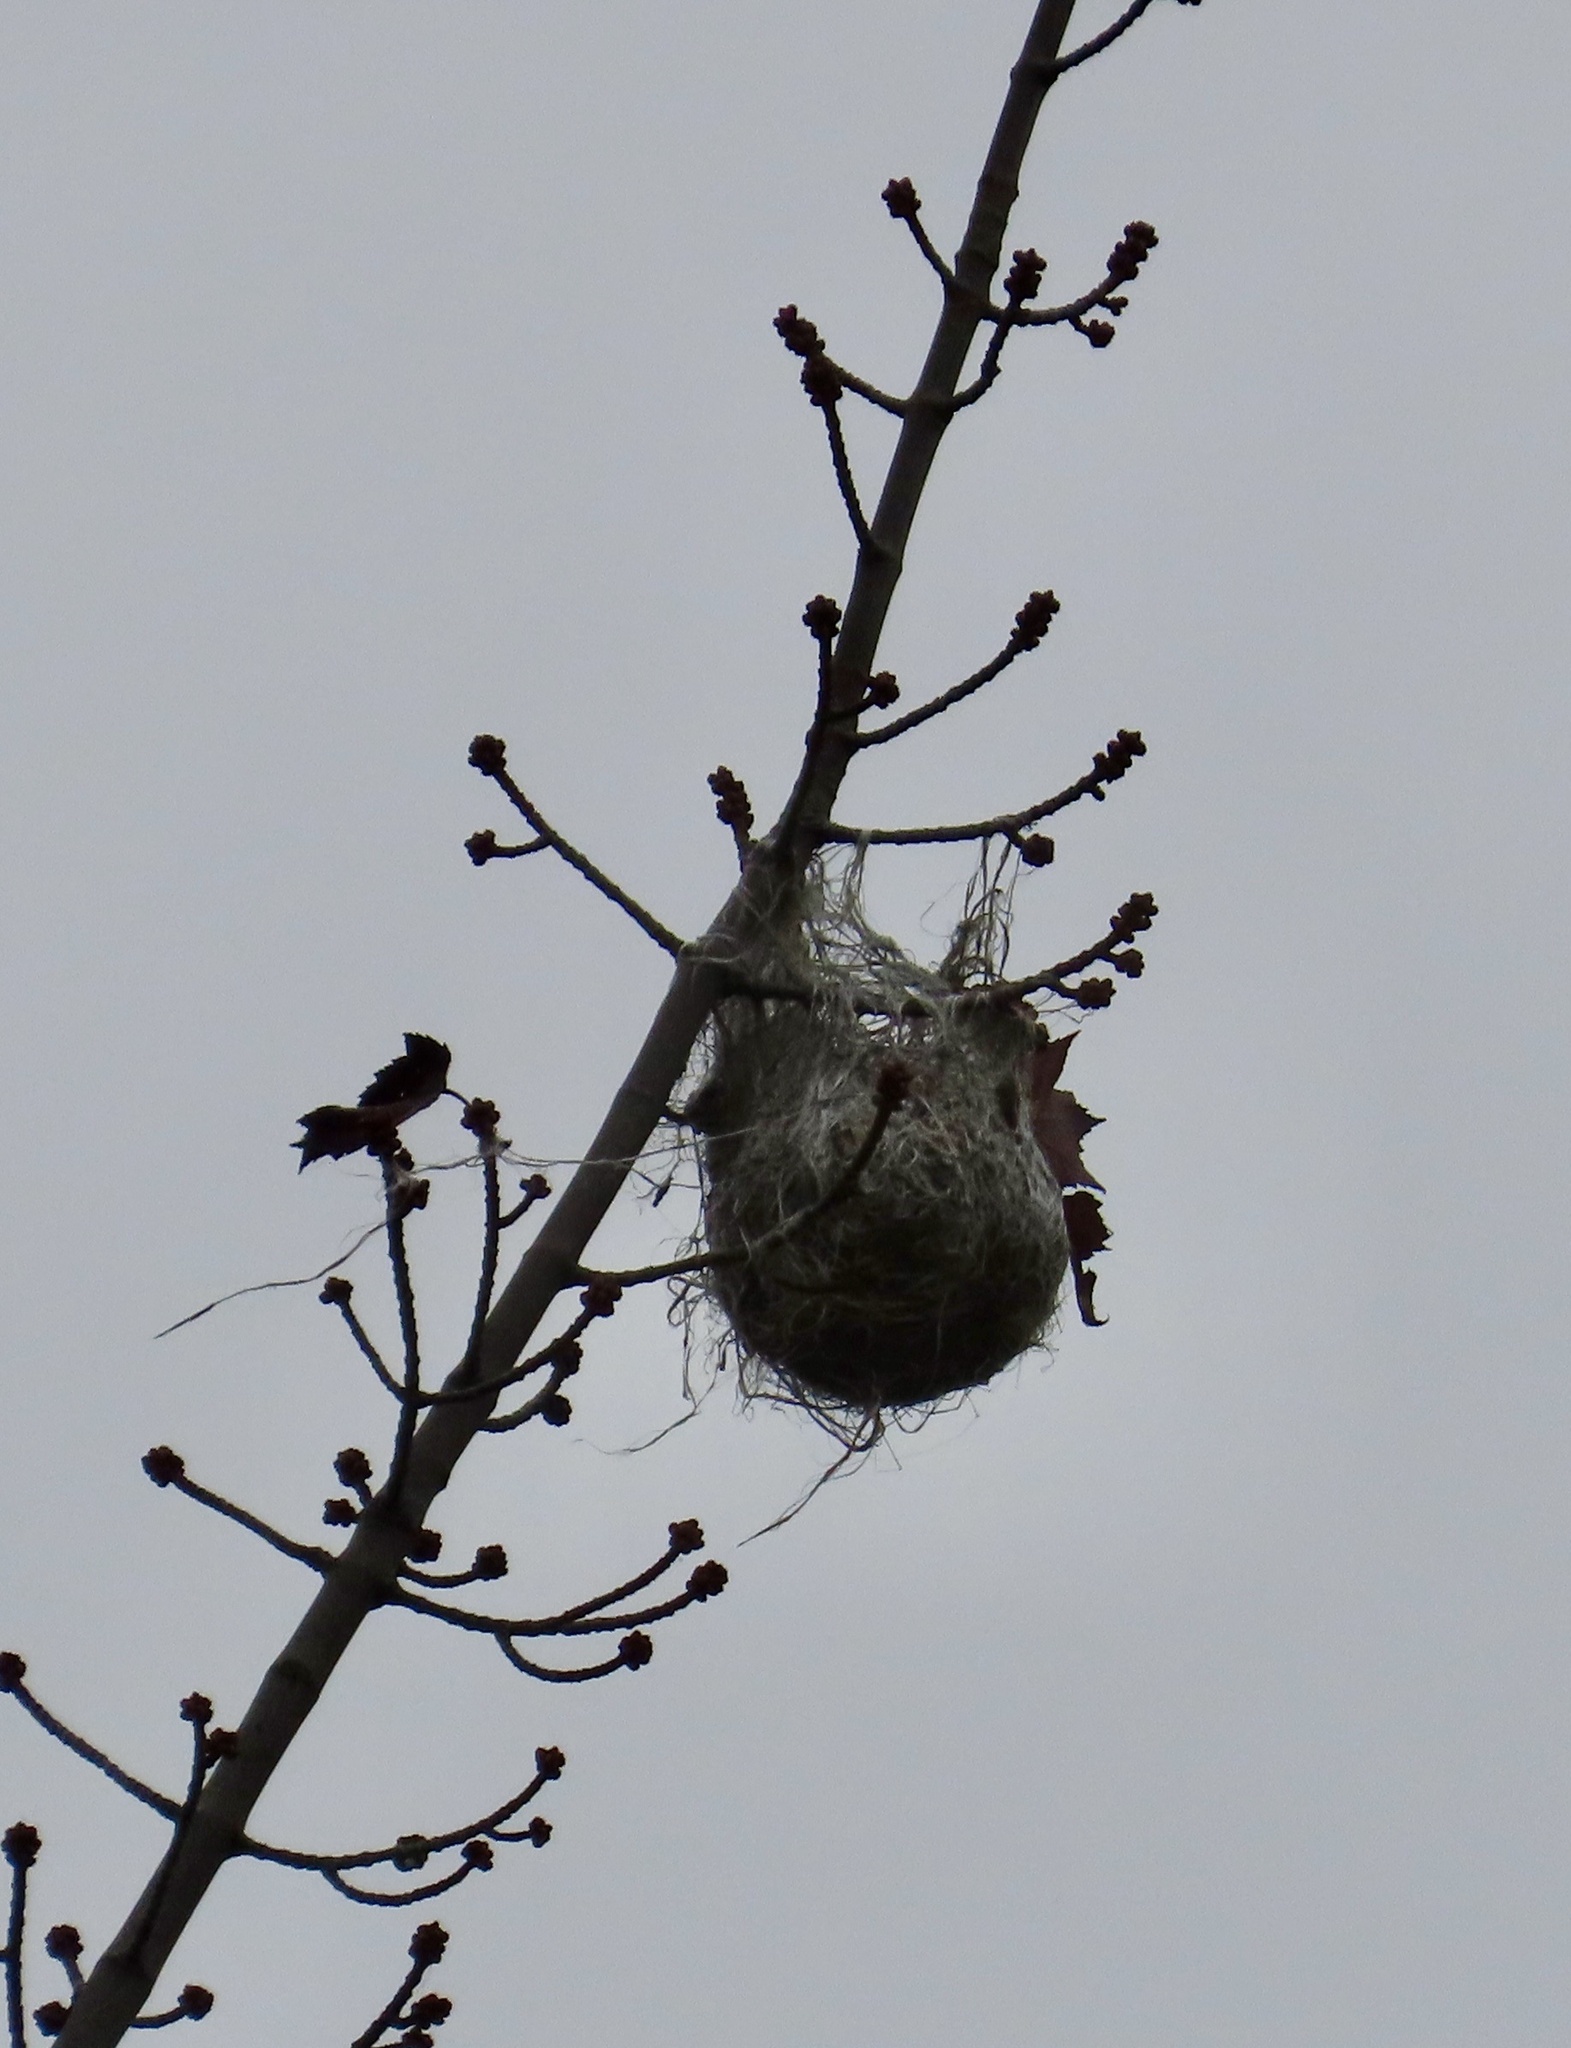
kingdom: Animalia
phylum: Chordata
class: Aves
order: Passeriformes
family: Icteridae
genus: Icterus
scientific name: Icterus galbula
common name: Baltimore oriole
